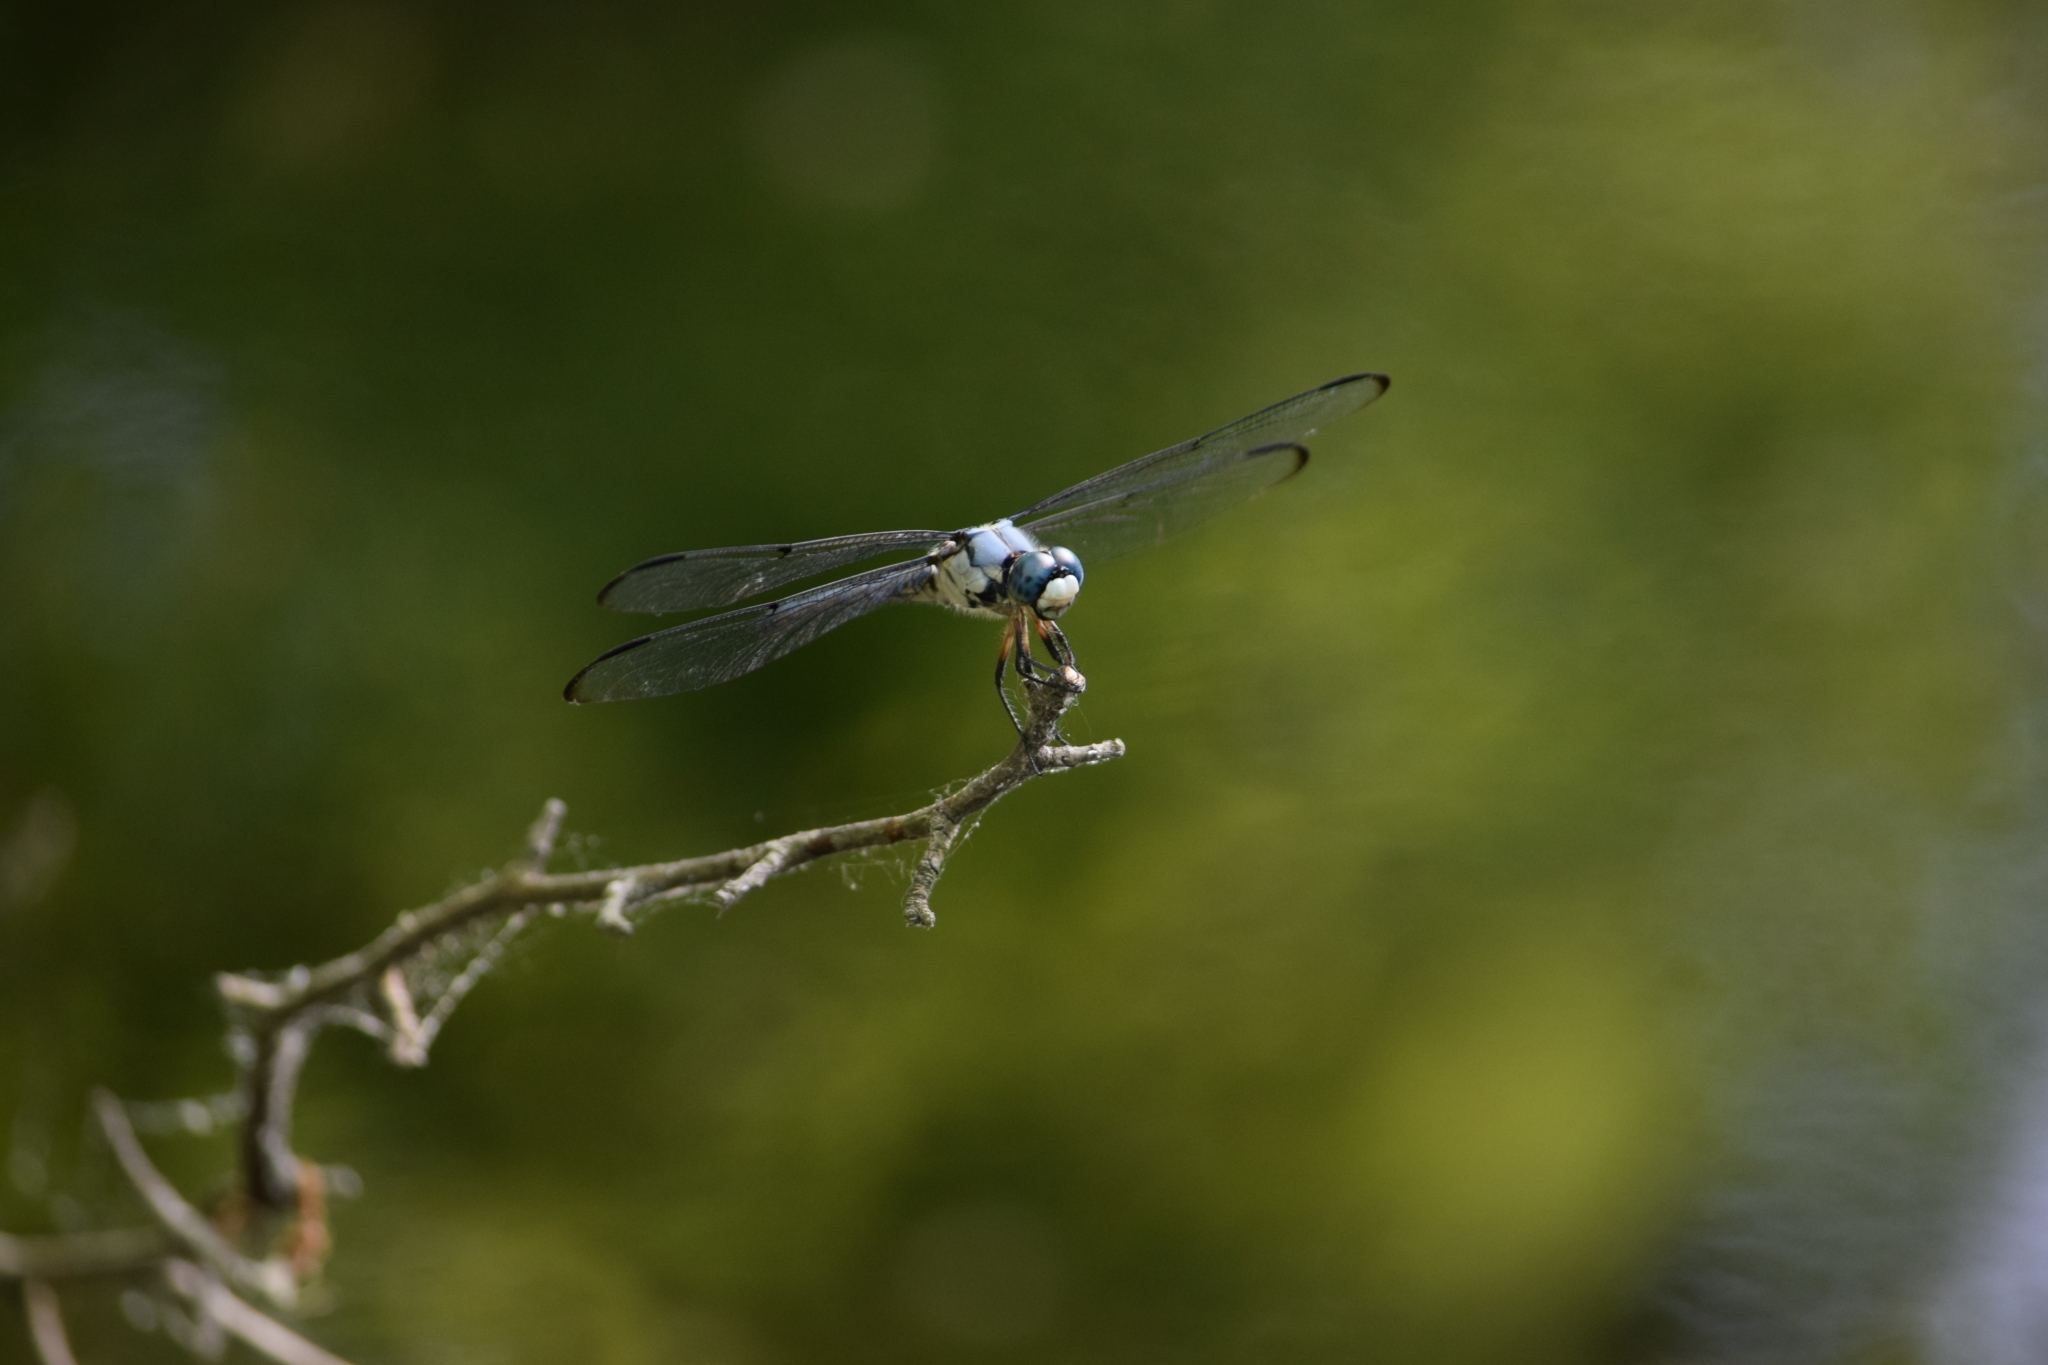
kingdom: Animalia
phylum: Arthropoda
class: Insecta
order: Odonata
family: Libellulidae
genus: Libellula
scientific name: Libellula vibrans
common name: Great blue skimmer
